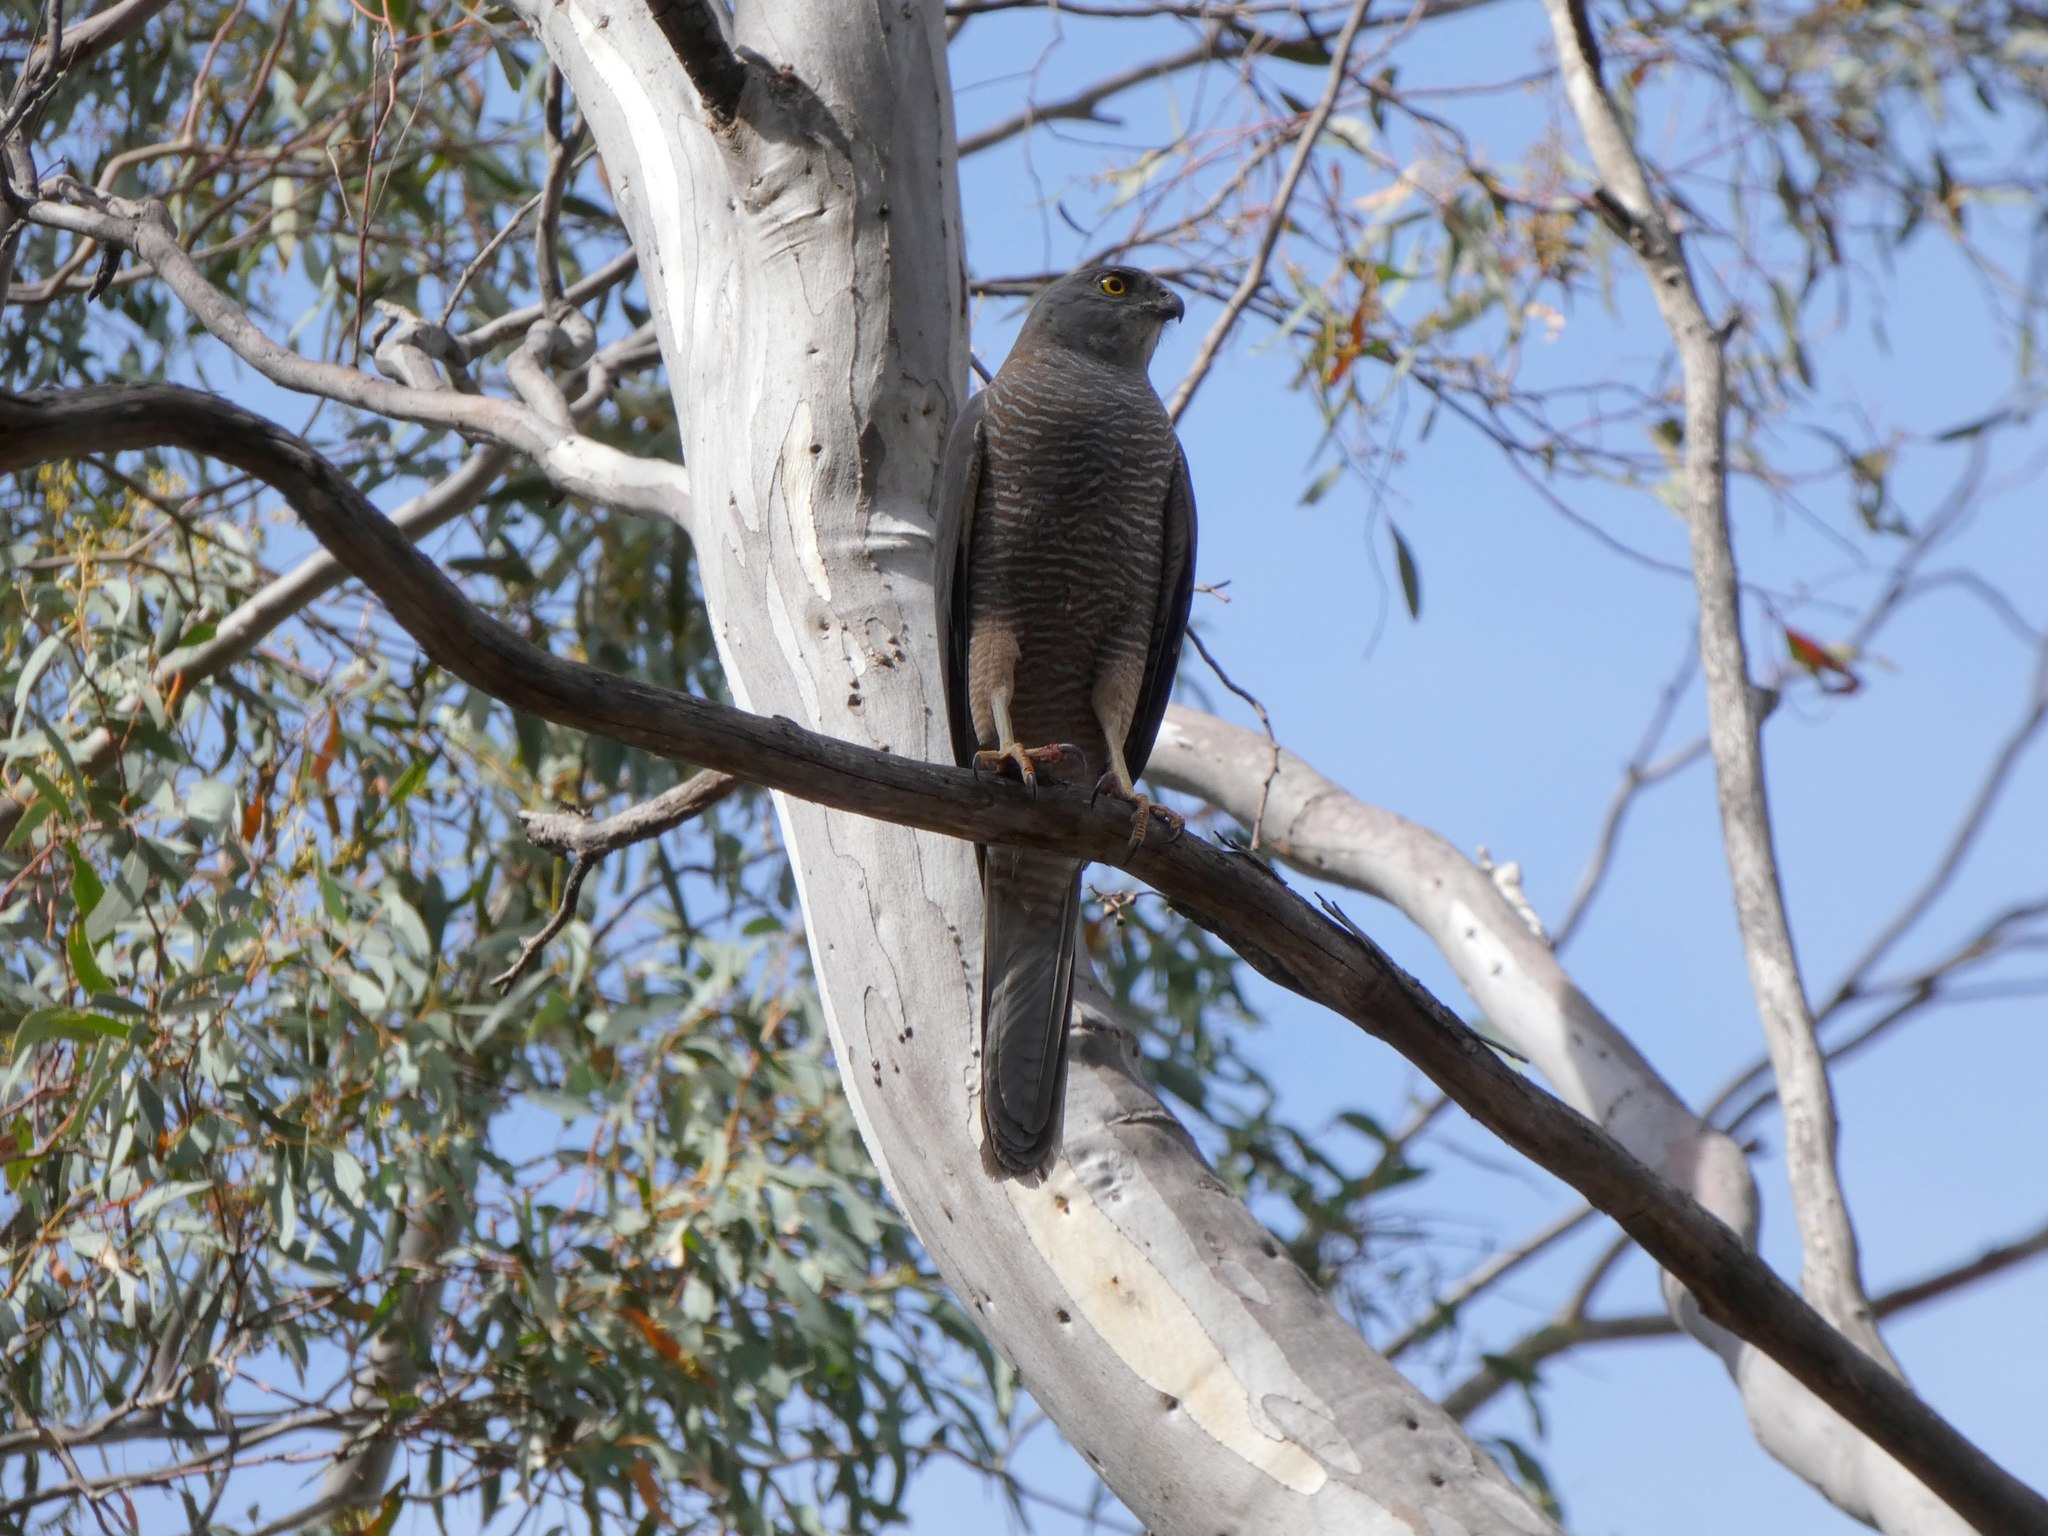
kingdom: Animalia
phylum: Chordata
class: Aves
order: Accipitriformes
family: Accipitridae
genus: Accipiter
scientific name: Accipiter fasciatus
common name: Brown goshawk
